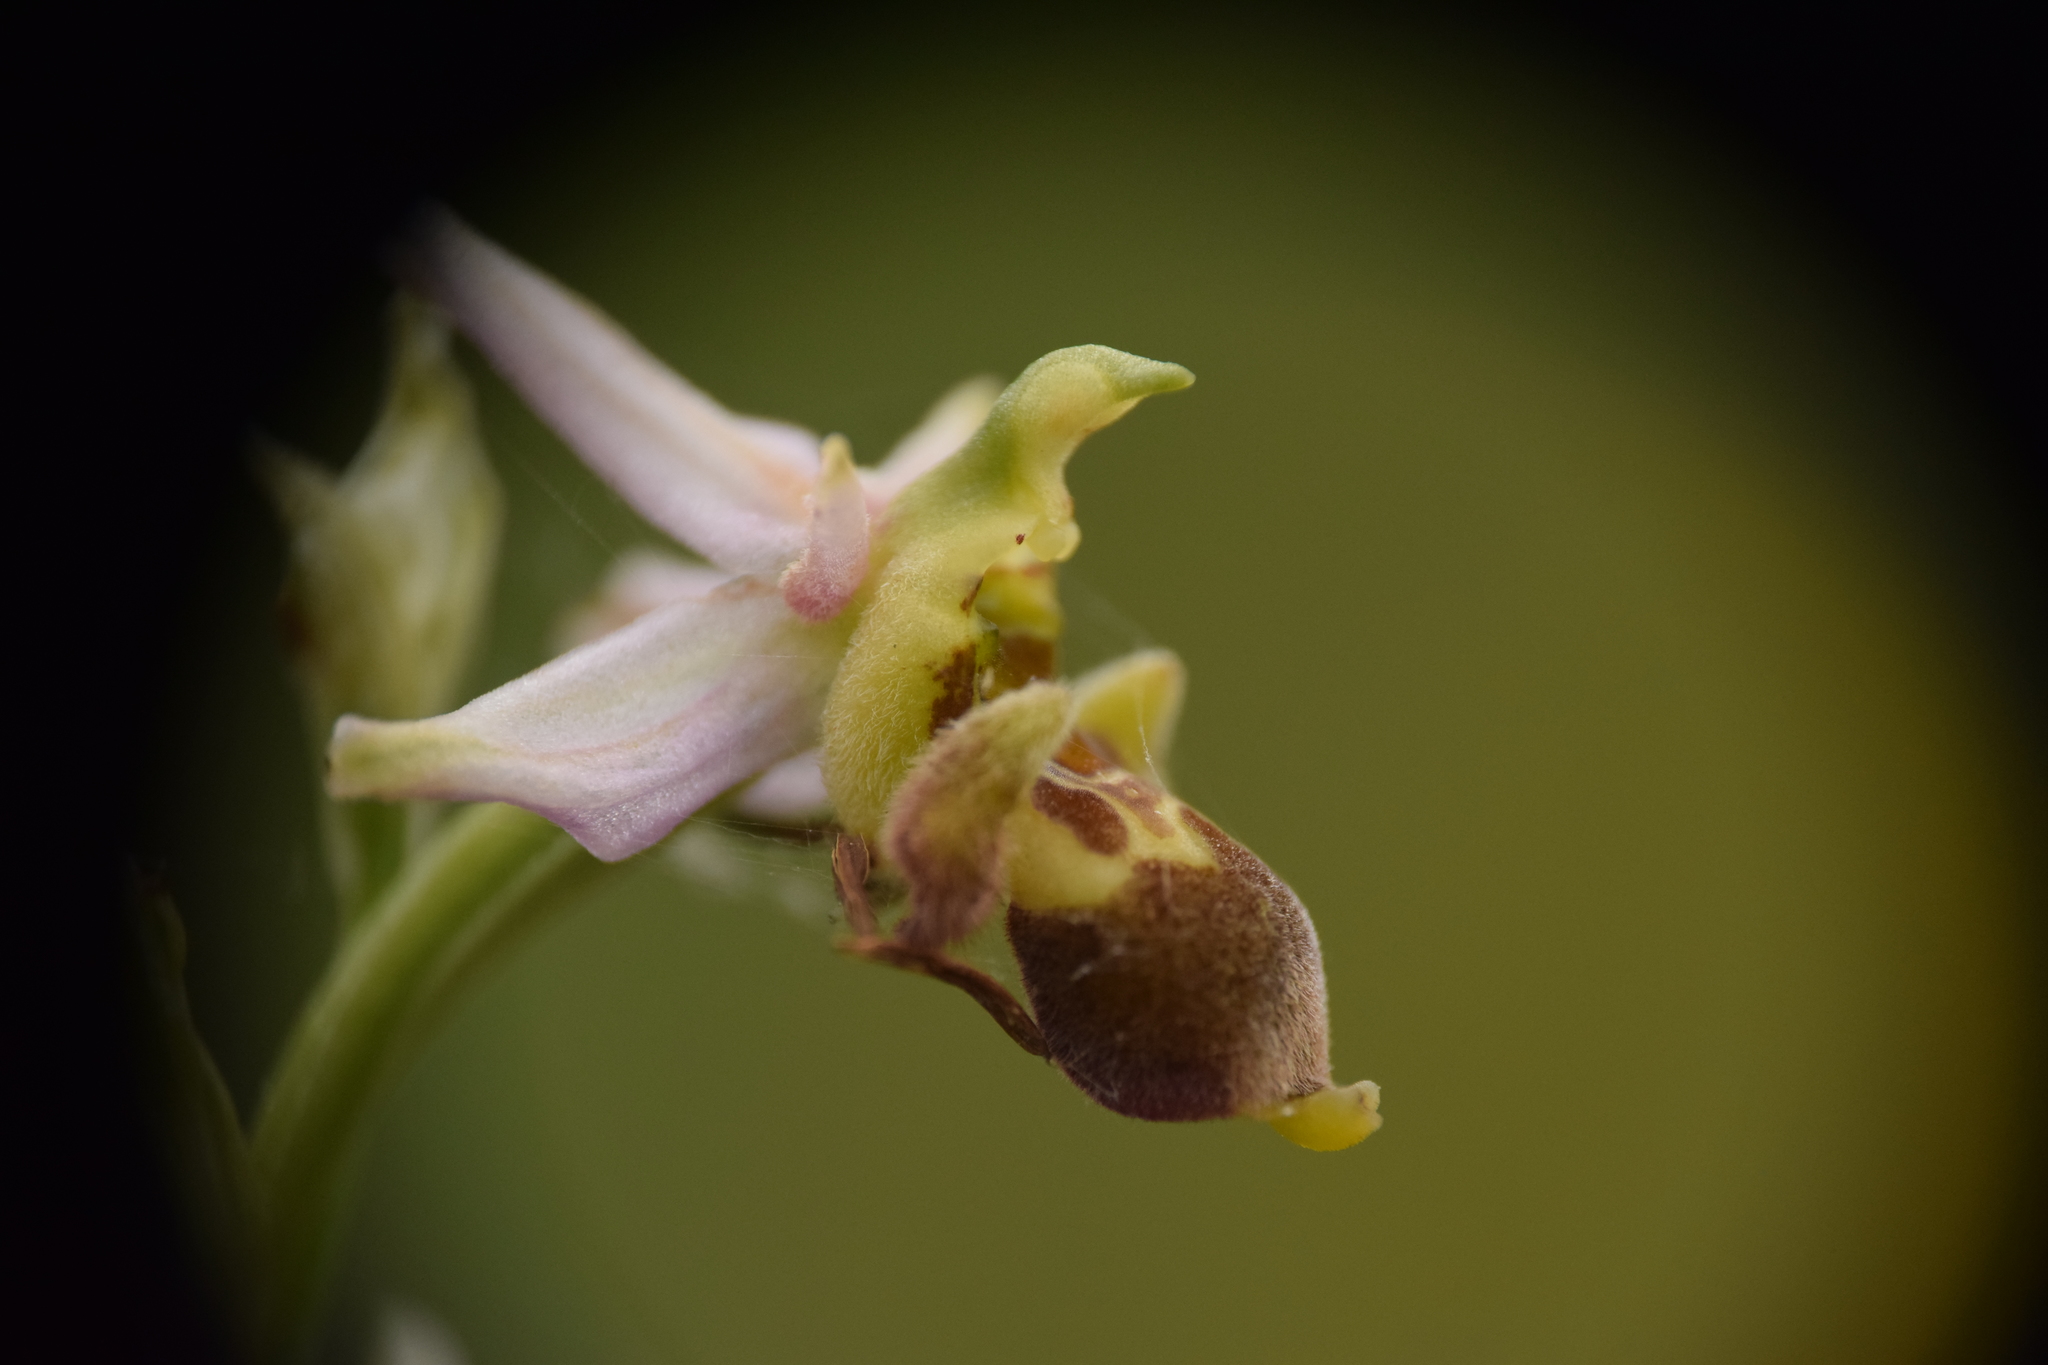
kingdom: Plantae
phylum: Tracheophyta
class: Liliopsida
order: Asparagales
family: Orchidaceae
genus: Ophrys
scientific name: Ophrys scolopax
